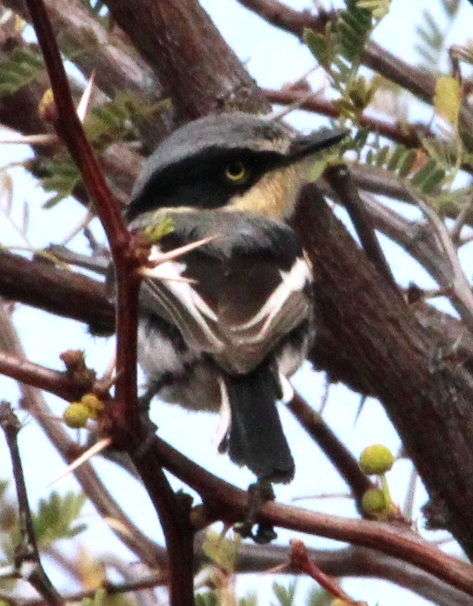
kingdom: Animalia
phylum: Chordata
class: Aves
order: Passeriformes
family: Platysteiridae
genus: Batis
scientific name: Batis pririt
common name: Pririt batis
